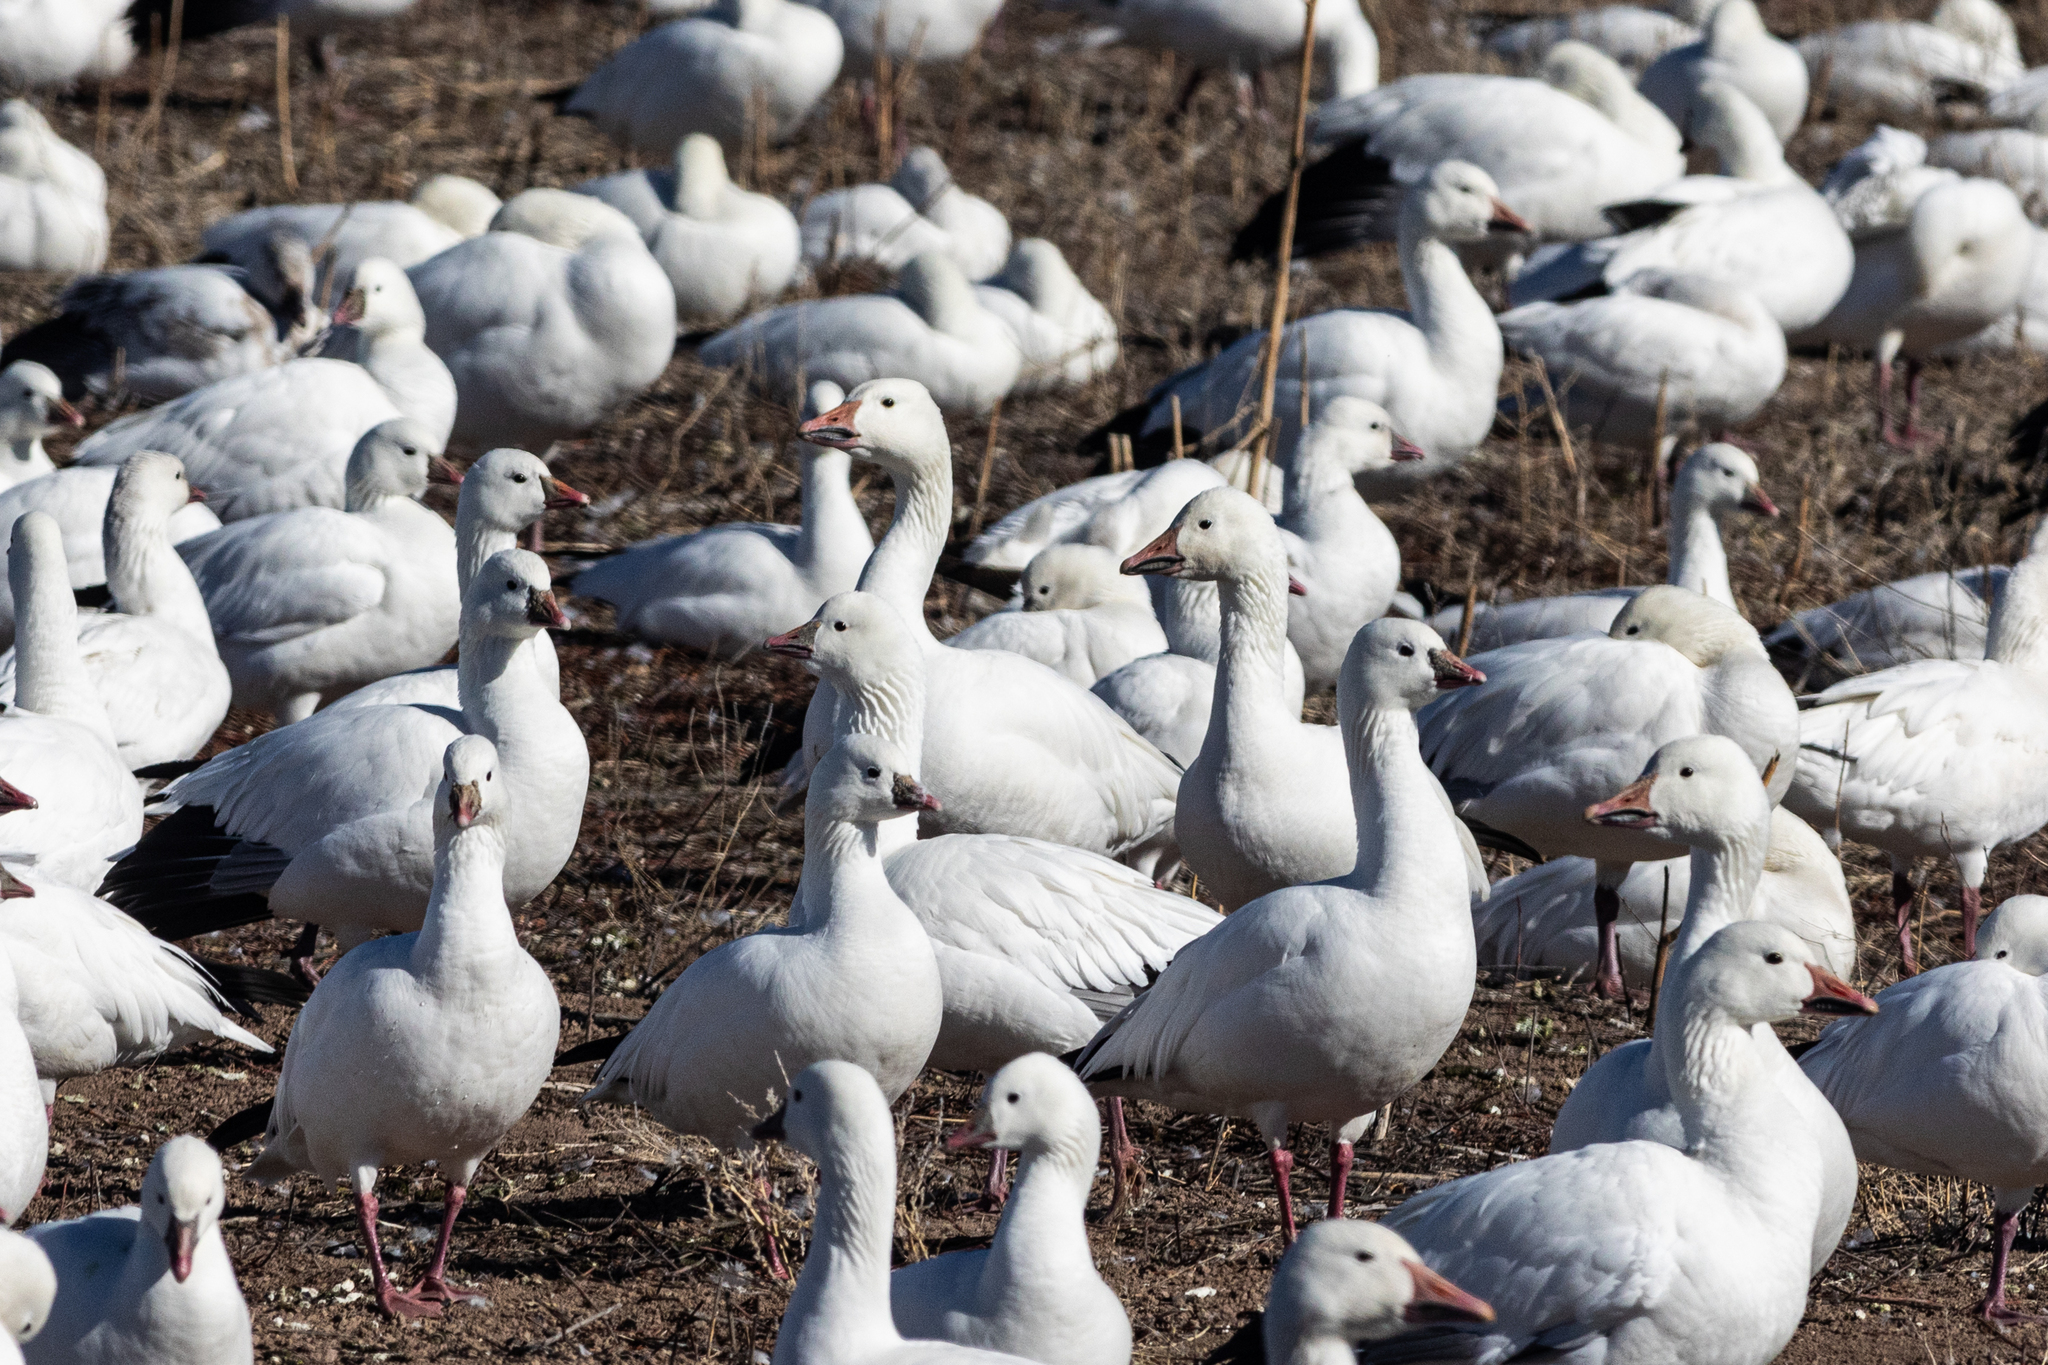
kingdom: Animalia
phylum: Chordata
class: Aves
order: Anseriformes
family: Anatidae
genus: Anser
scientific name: Anser caerulescens
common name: Snow goose
